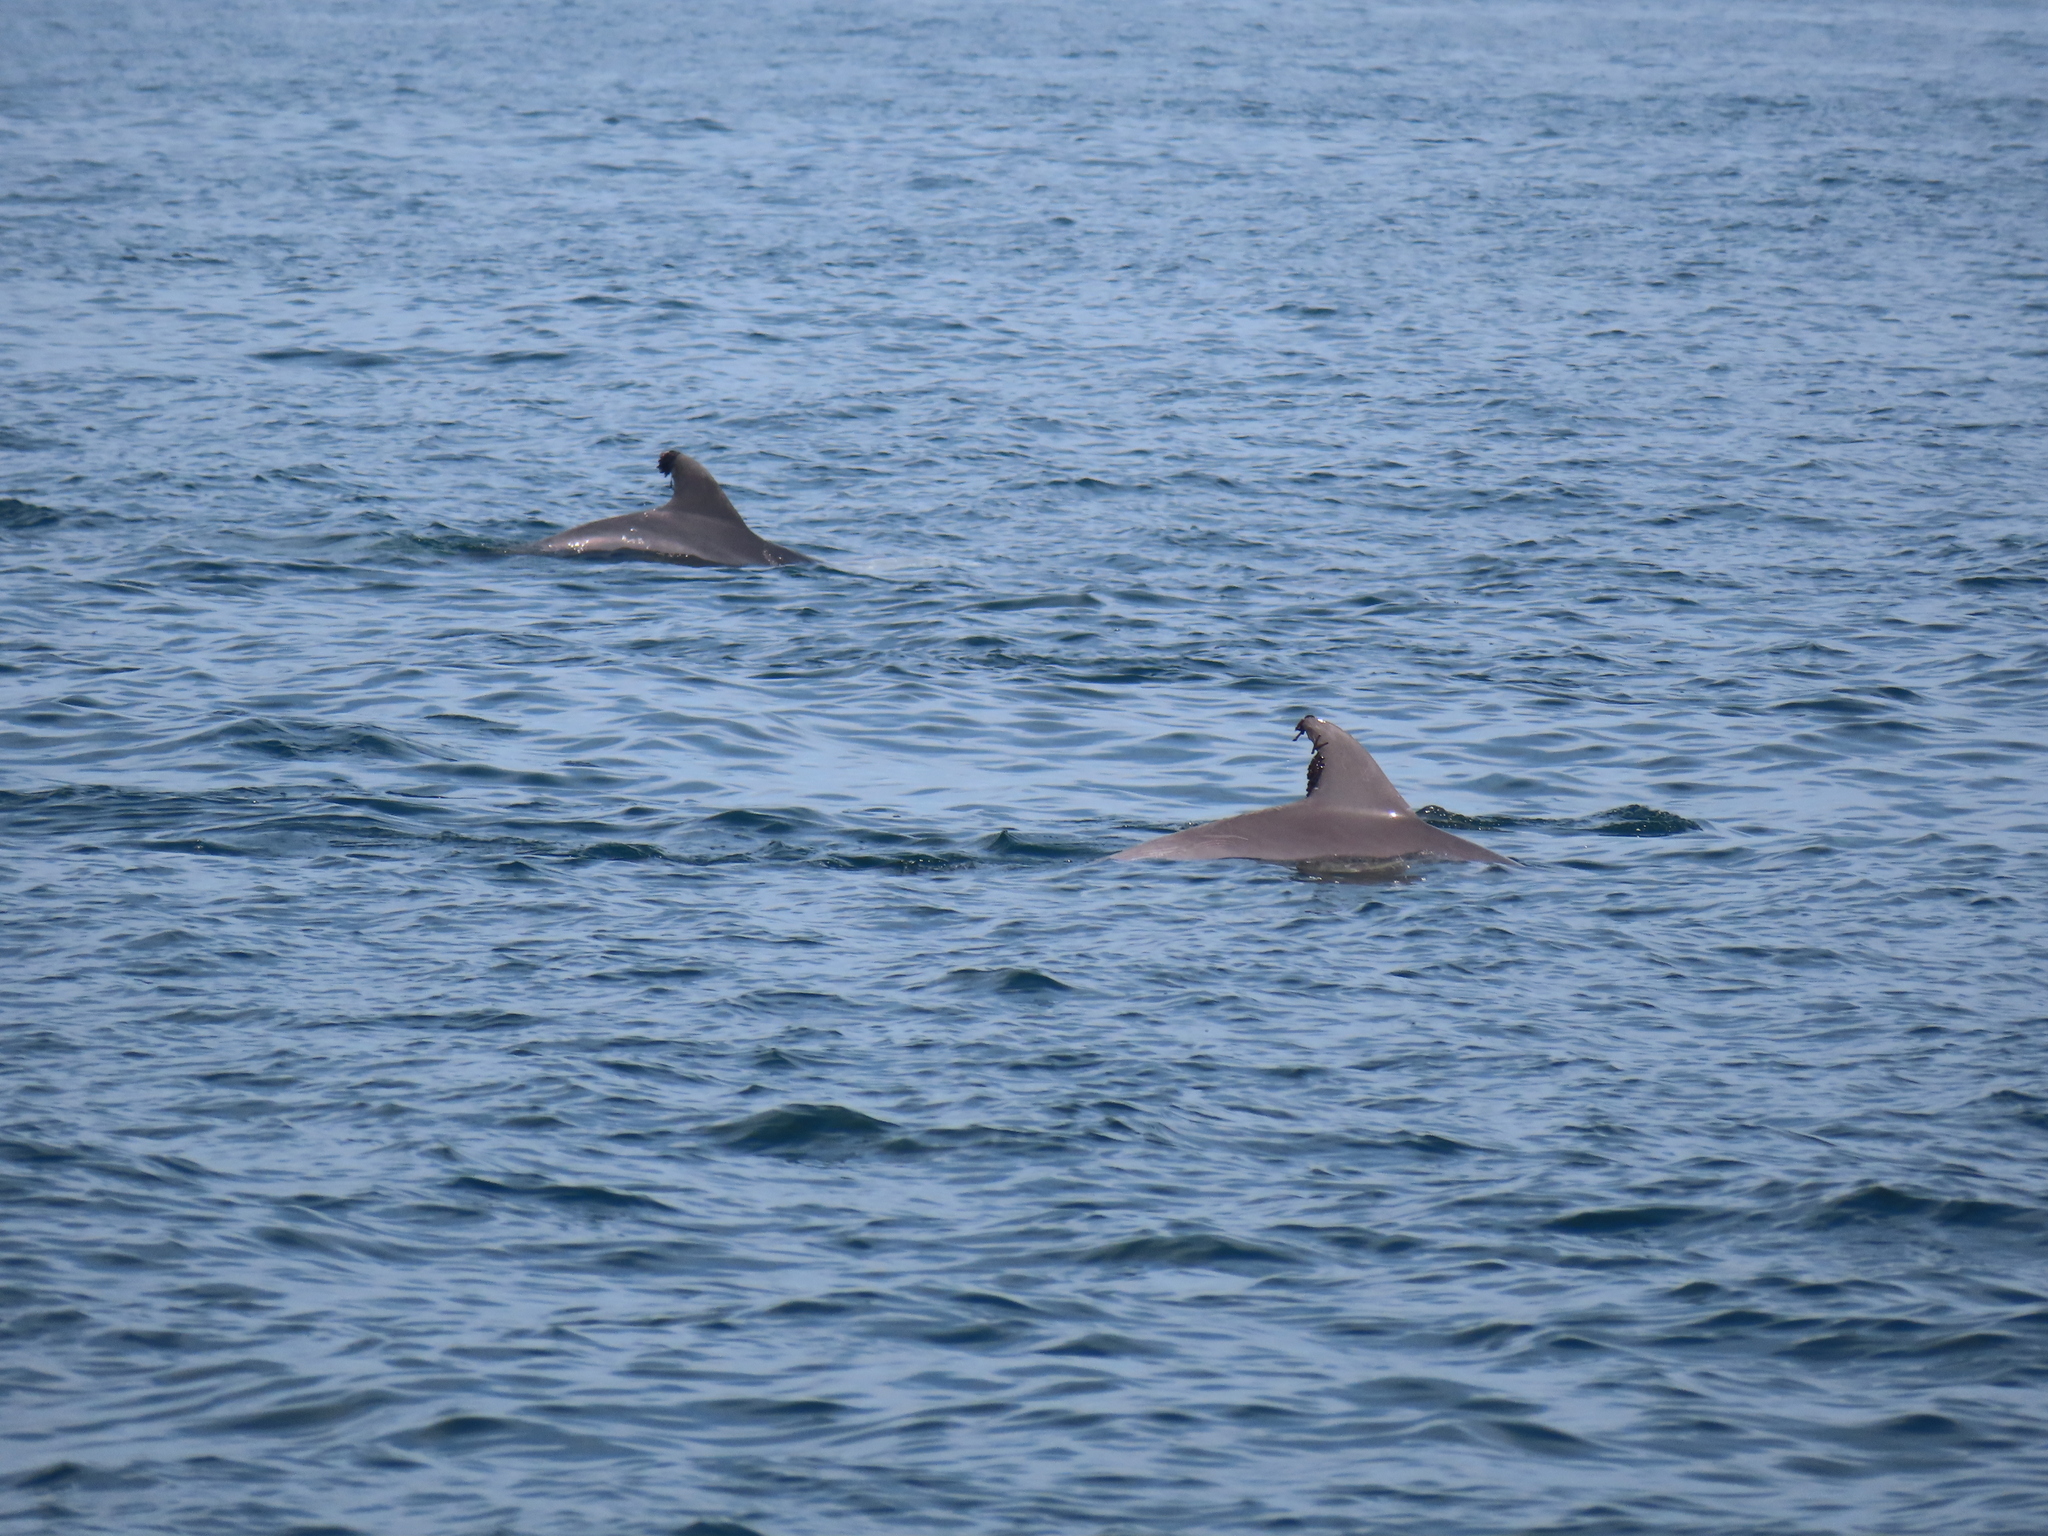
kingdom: Animalia
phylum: Chordata
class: Mammalia
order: Cetacea
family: Delphinidae
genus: Tursiops
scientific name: Tursiops truncatus
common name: Bottlenose dolphin
